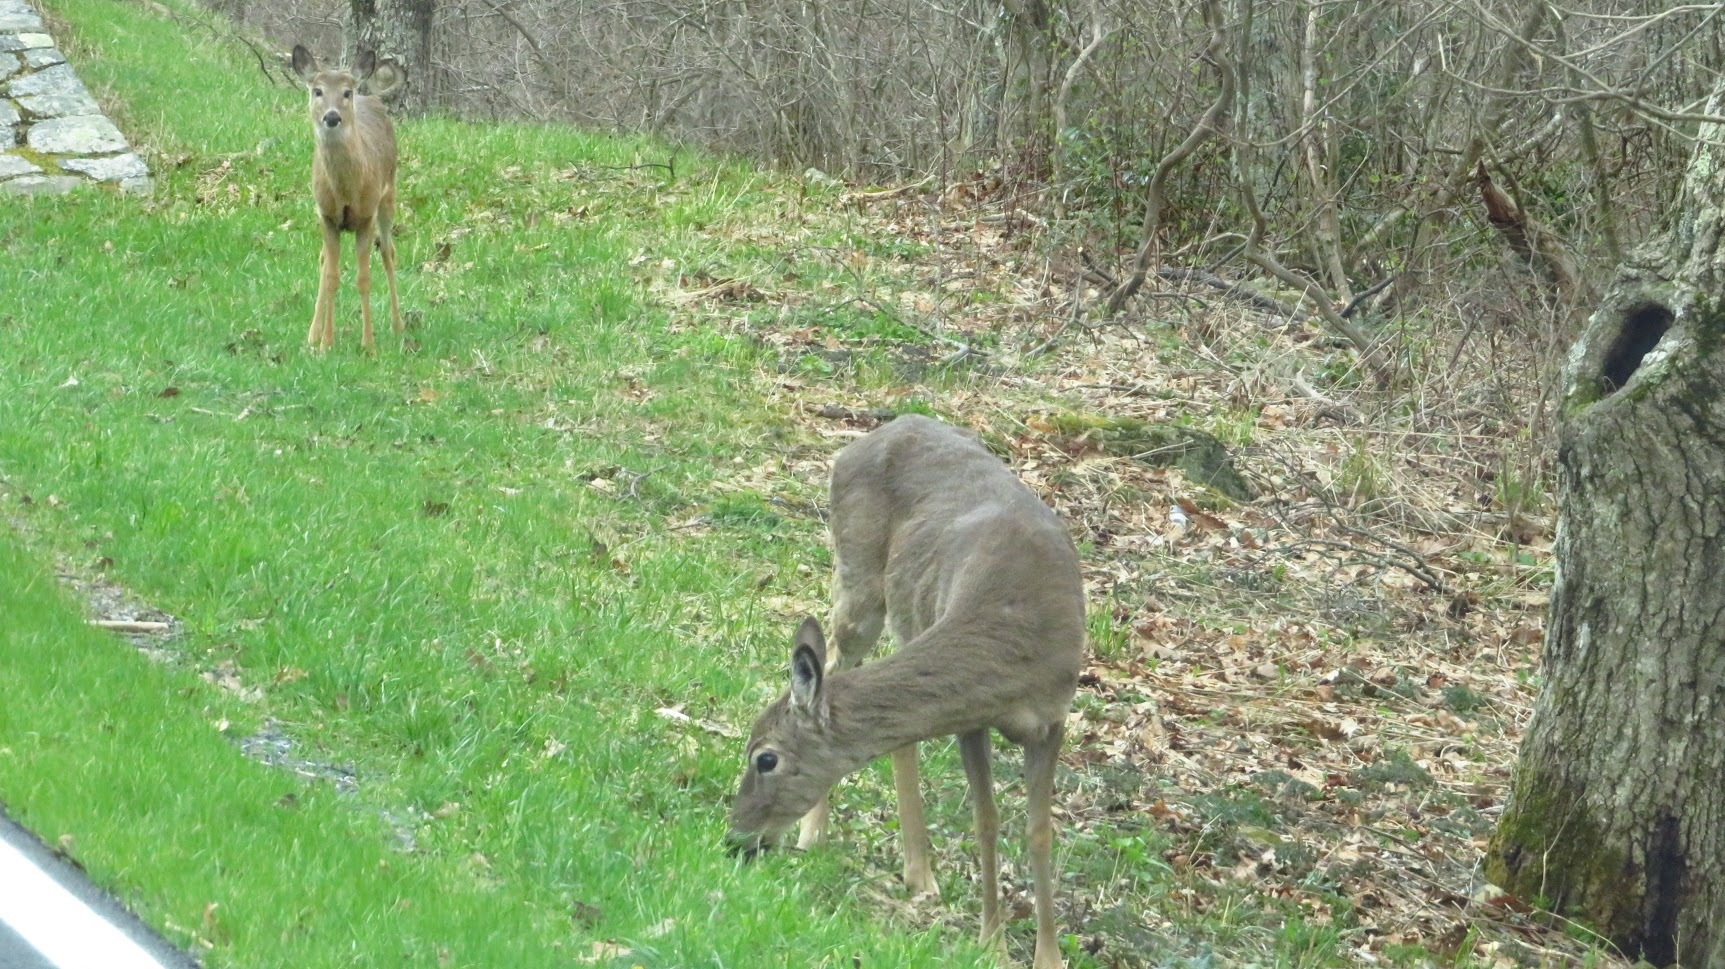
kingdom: Animalia
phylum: Chordata
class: Mammalia
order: Artiodactyla
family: Cervidae
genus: Odocoileus
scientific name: Odocoileus virginianus
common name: White-tailed deer
